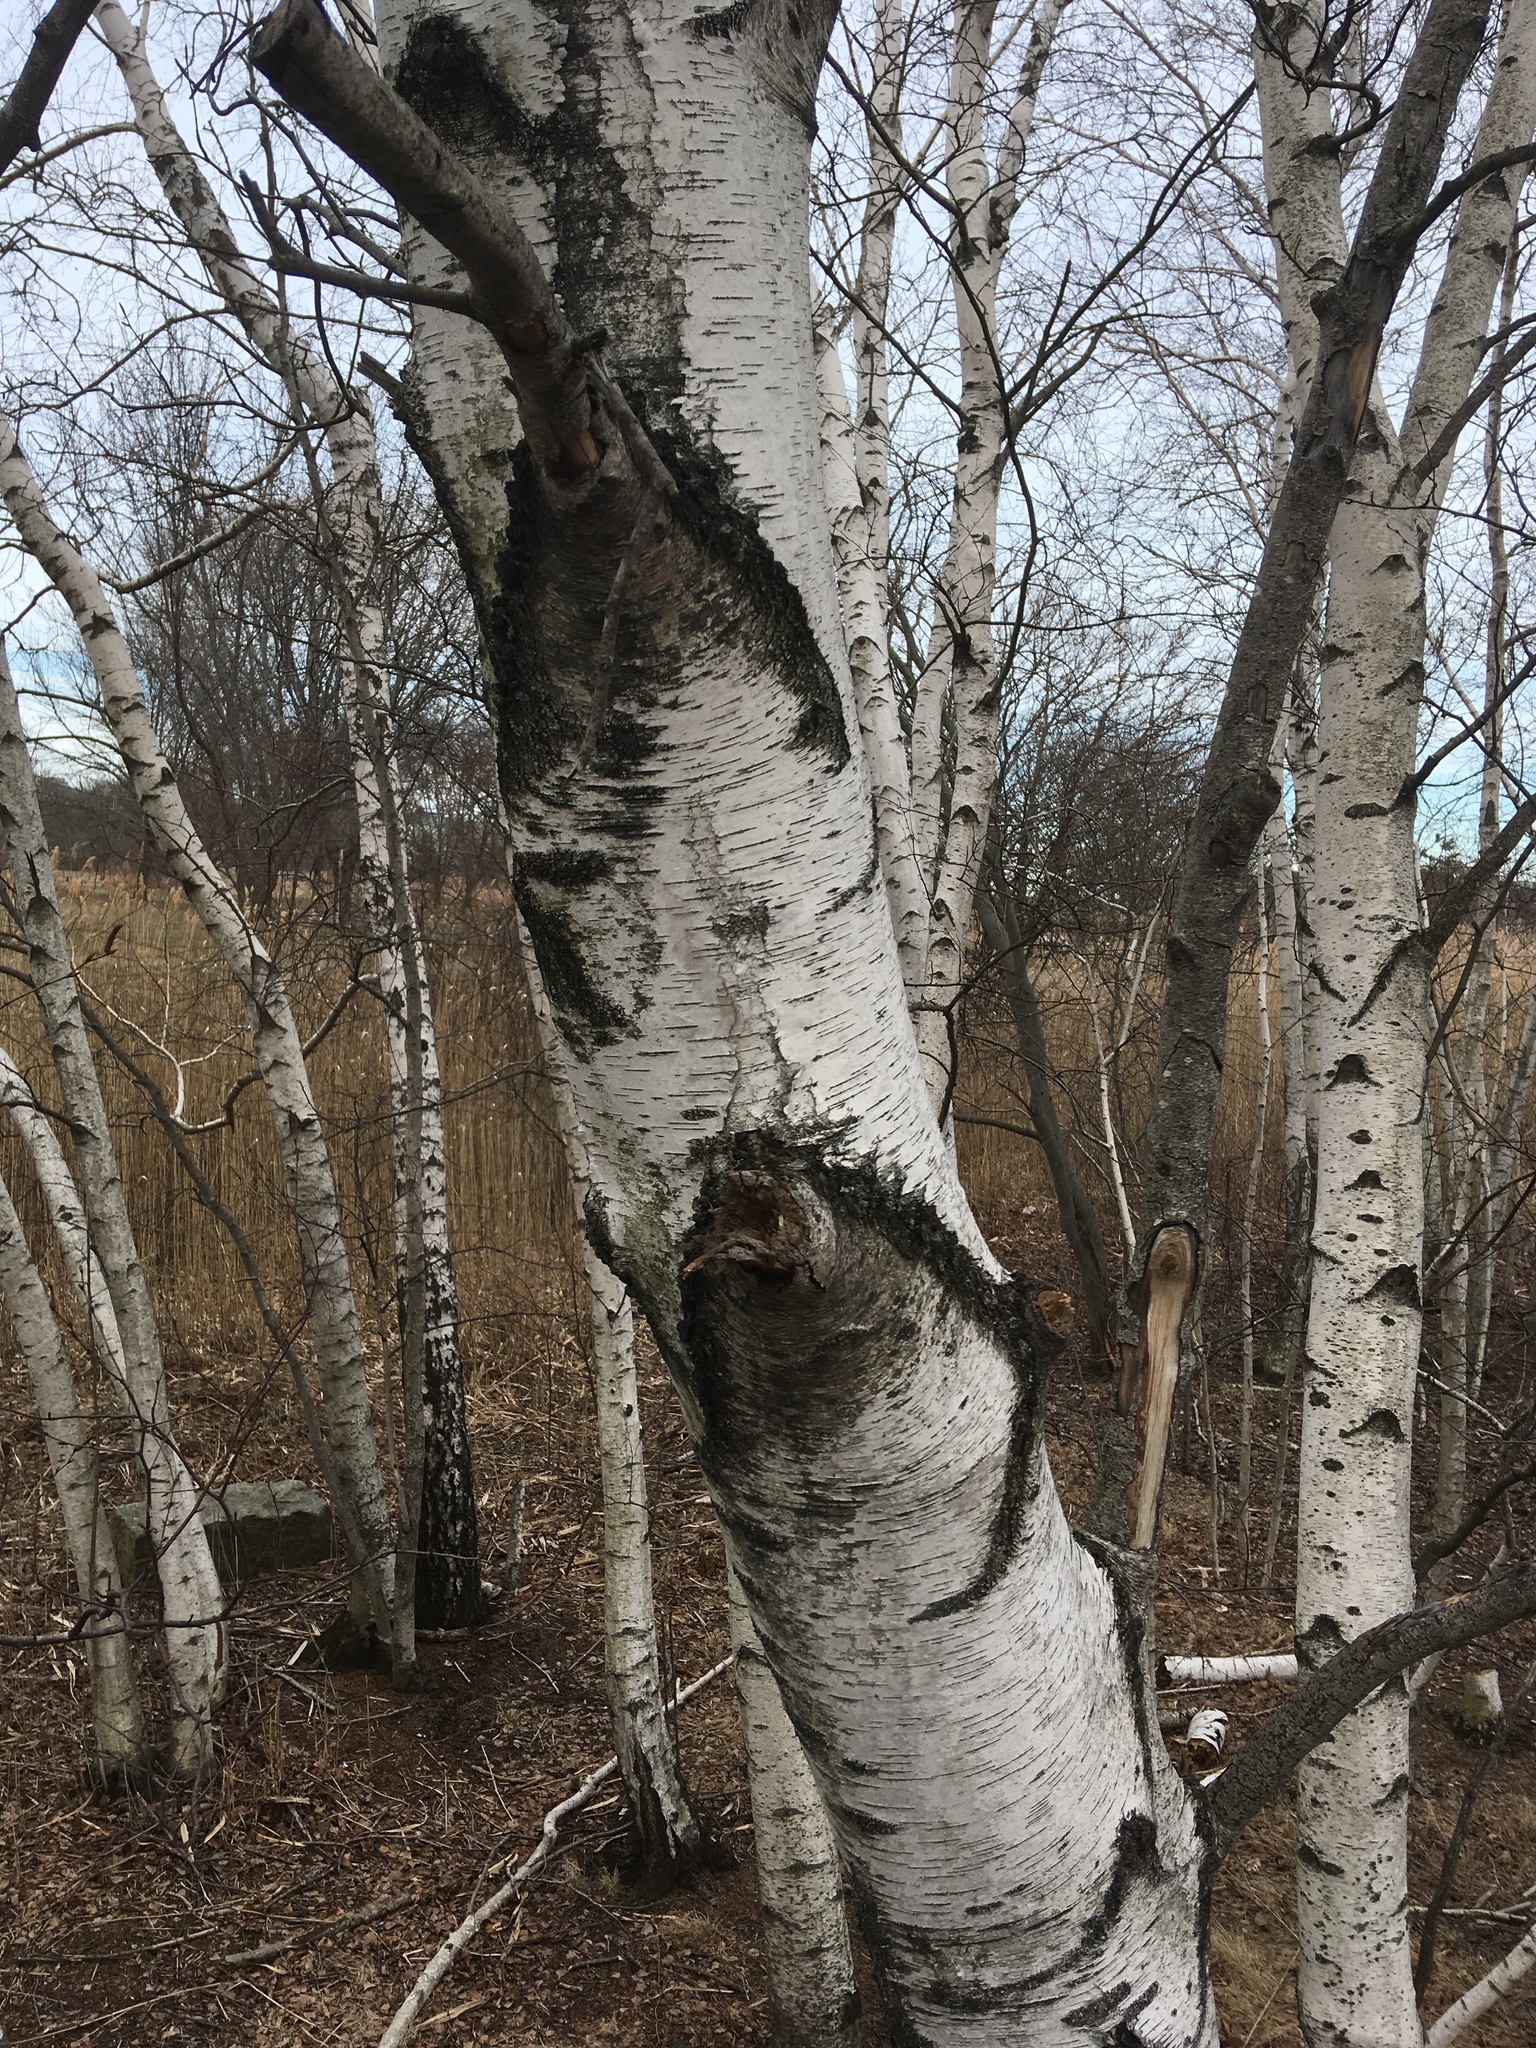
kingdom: Plantae
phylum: Tracheophyta
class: Magnoliopsida
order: Fagales
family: Betulaceae
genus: Betula
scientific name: Betula pendula
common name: Silver birch
